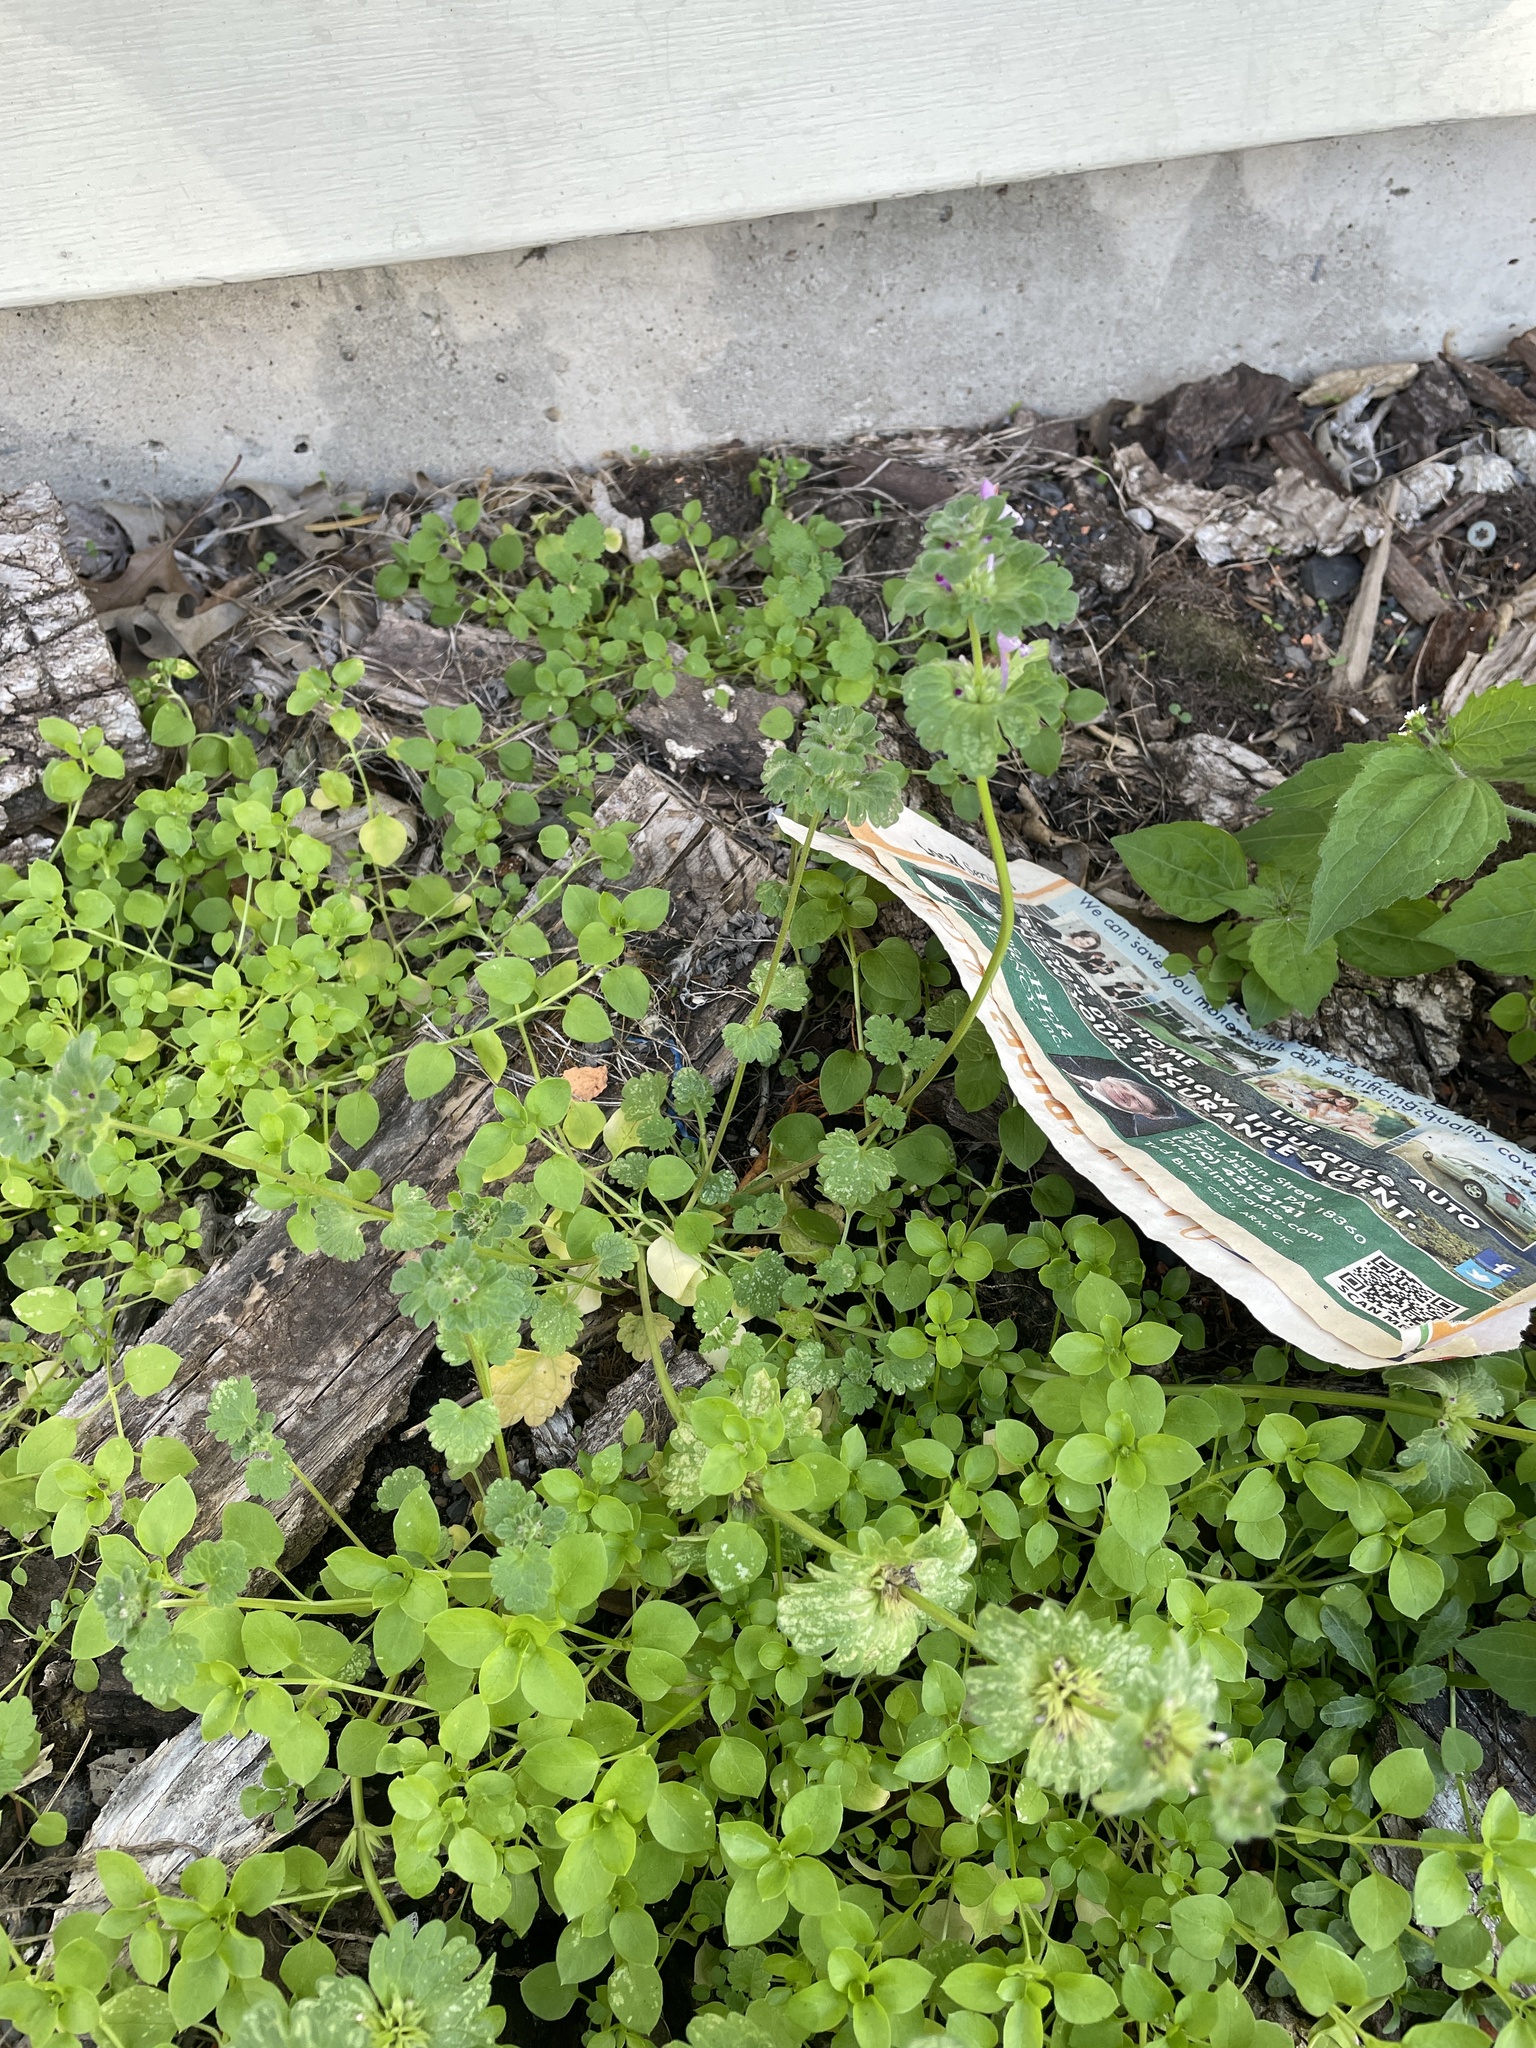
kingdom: Plantae
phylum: Tracheophyta
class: Magnoliopsida
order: Lamiales
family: Lamiaceae
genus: Lamium
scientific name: Lamium amplexicaule
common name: Henbit dead-nettle
